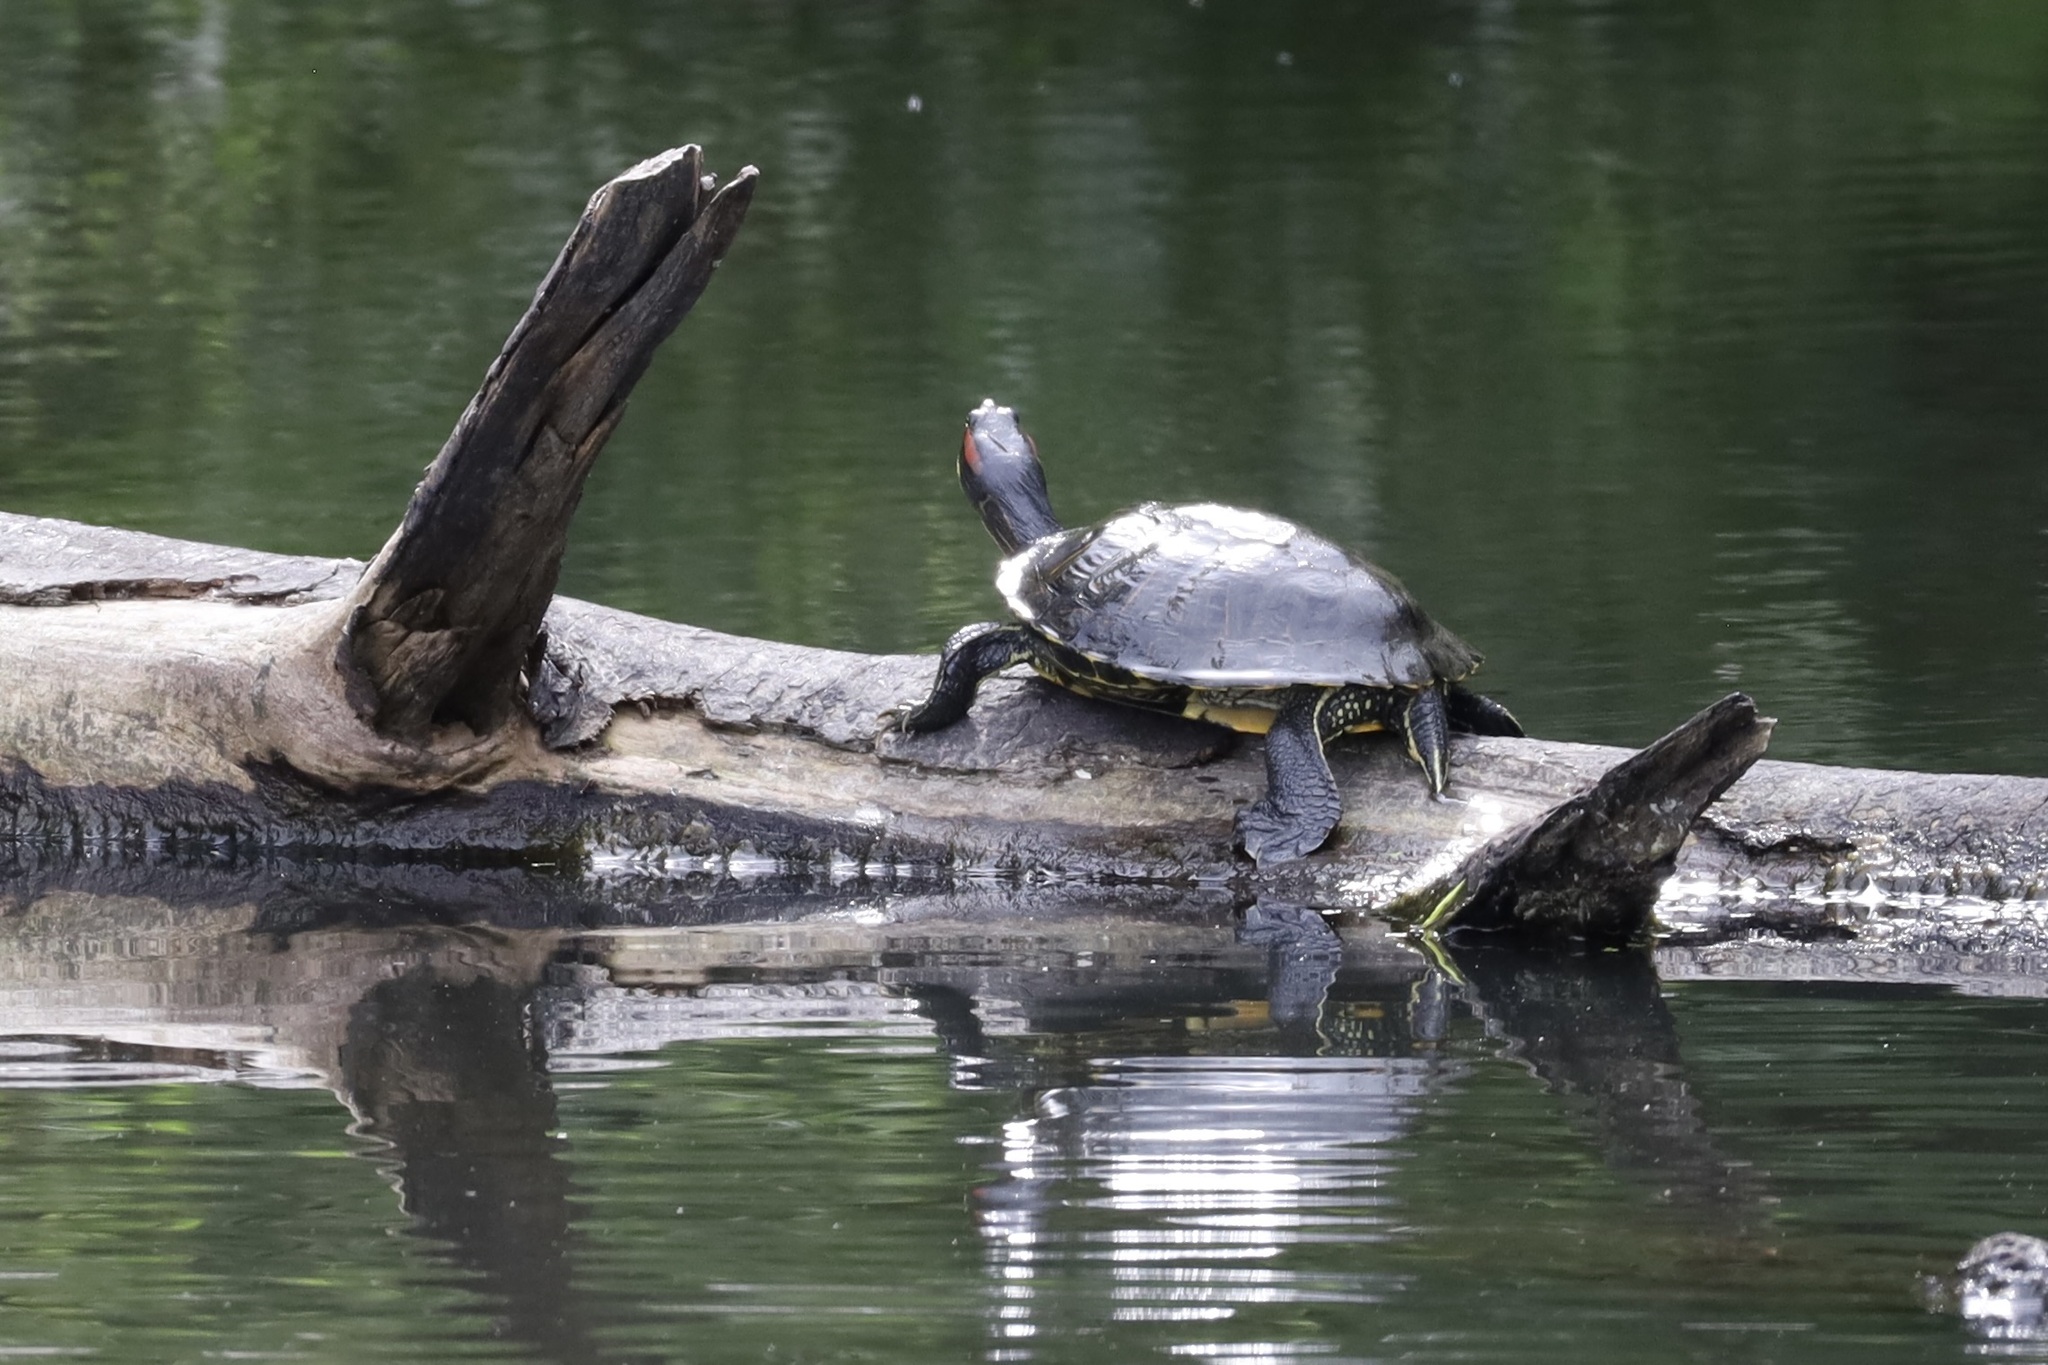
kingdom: Animalia
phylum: Chordata
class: Testudines
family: Emydidae
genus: Trachemys
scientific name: Trachemys scripta
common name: Slider
